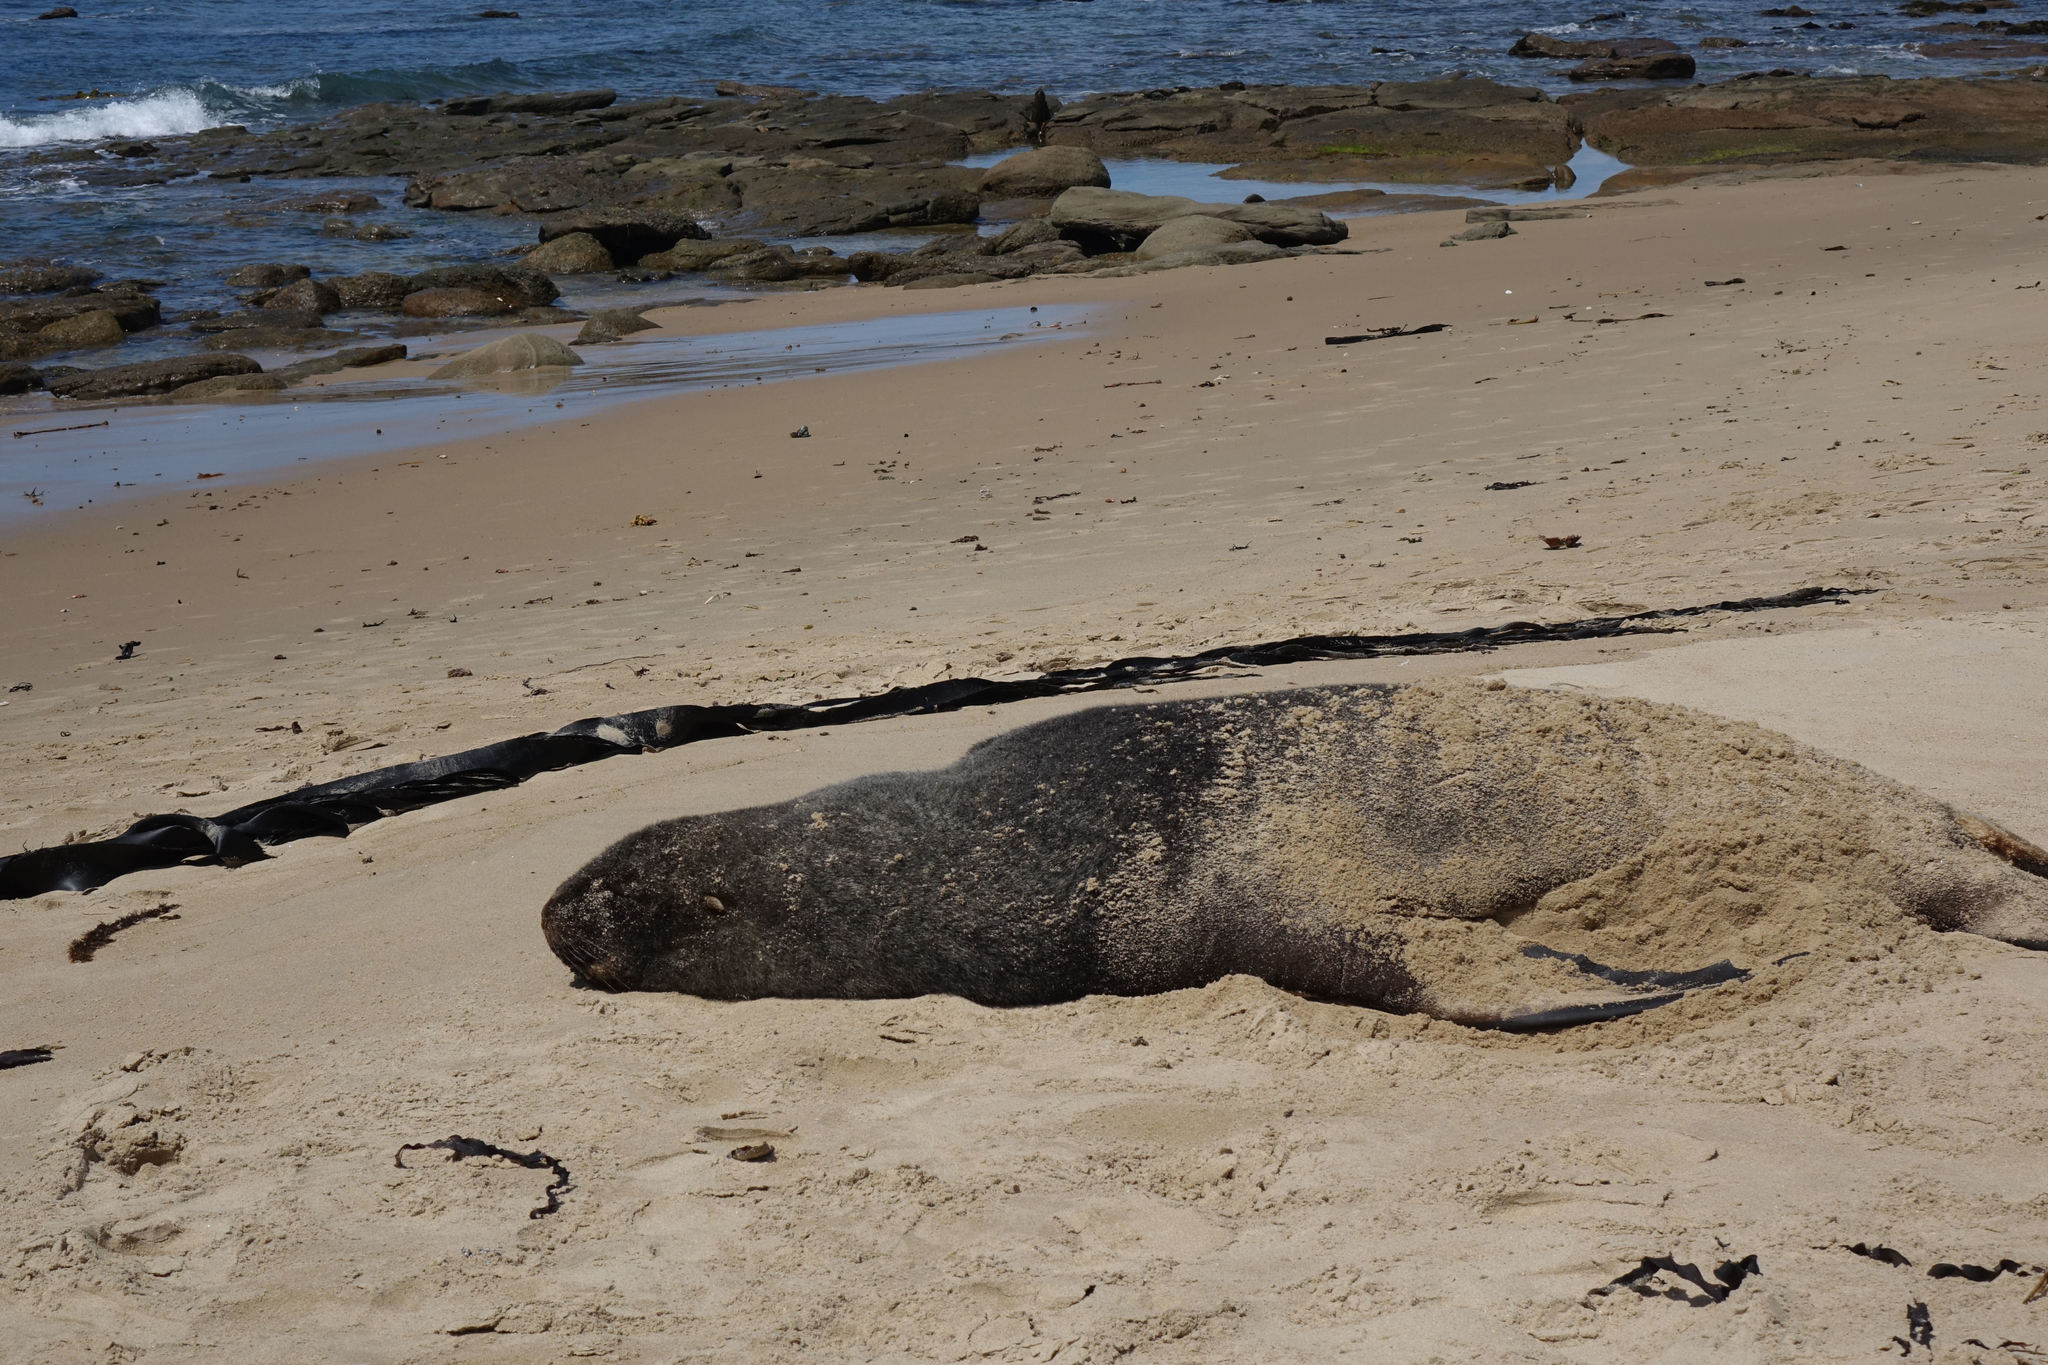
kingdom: Animalia
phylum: Chordata
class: Mammalia
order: Carnivora
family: Otariidae
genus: Phocarctos
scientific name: Phocarctos hookeri
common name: New zealand sea lion
